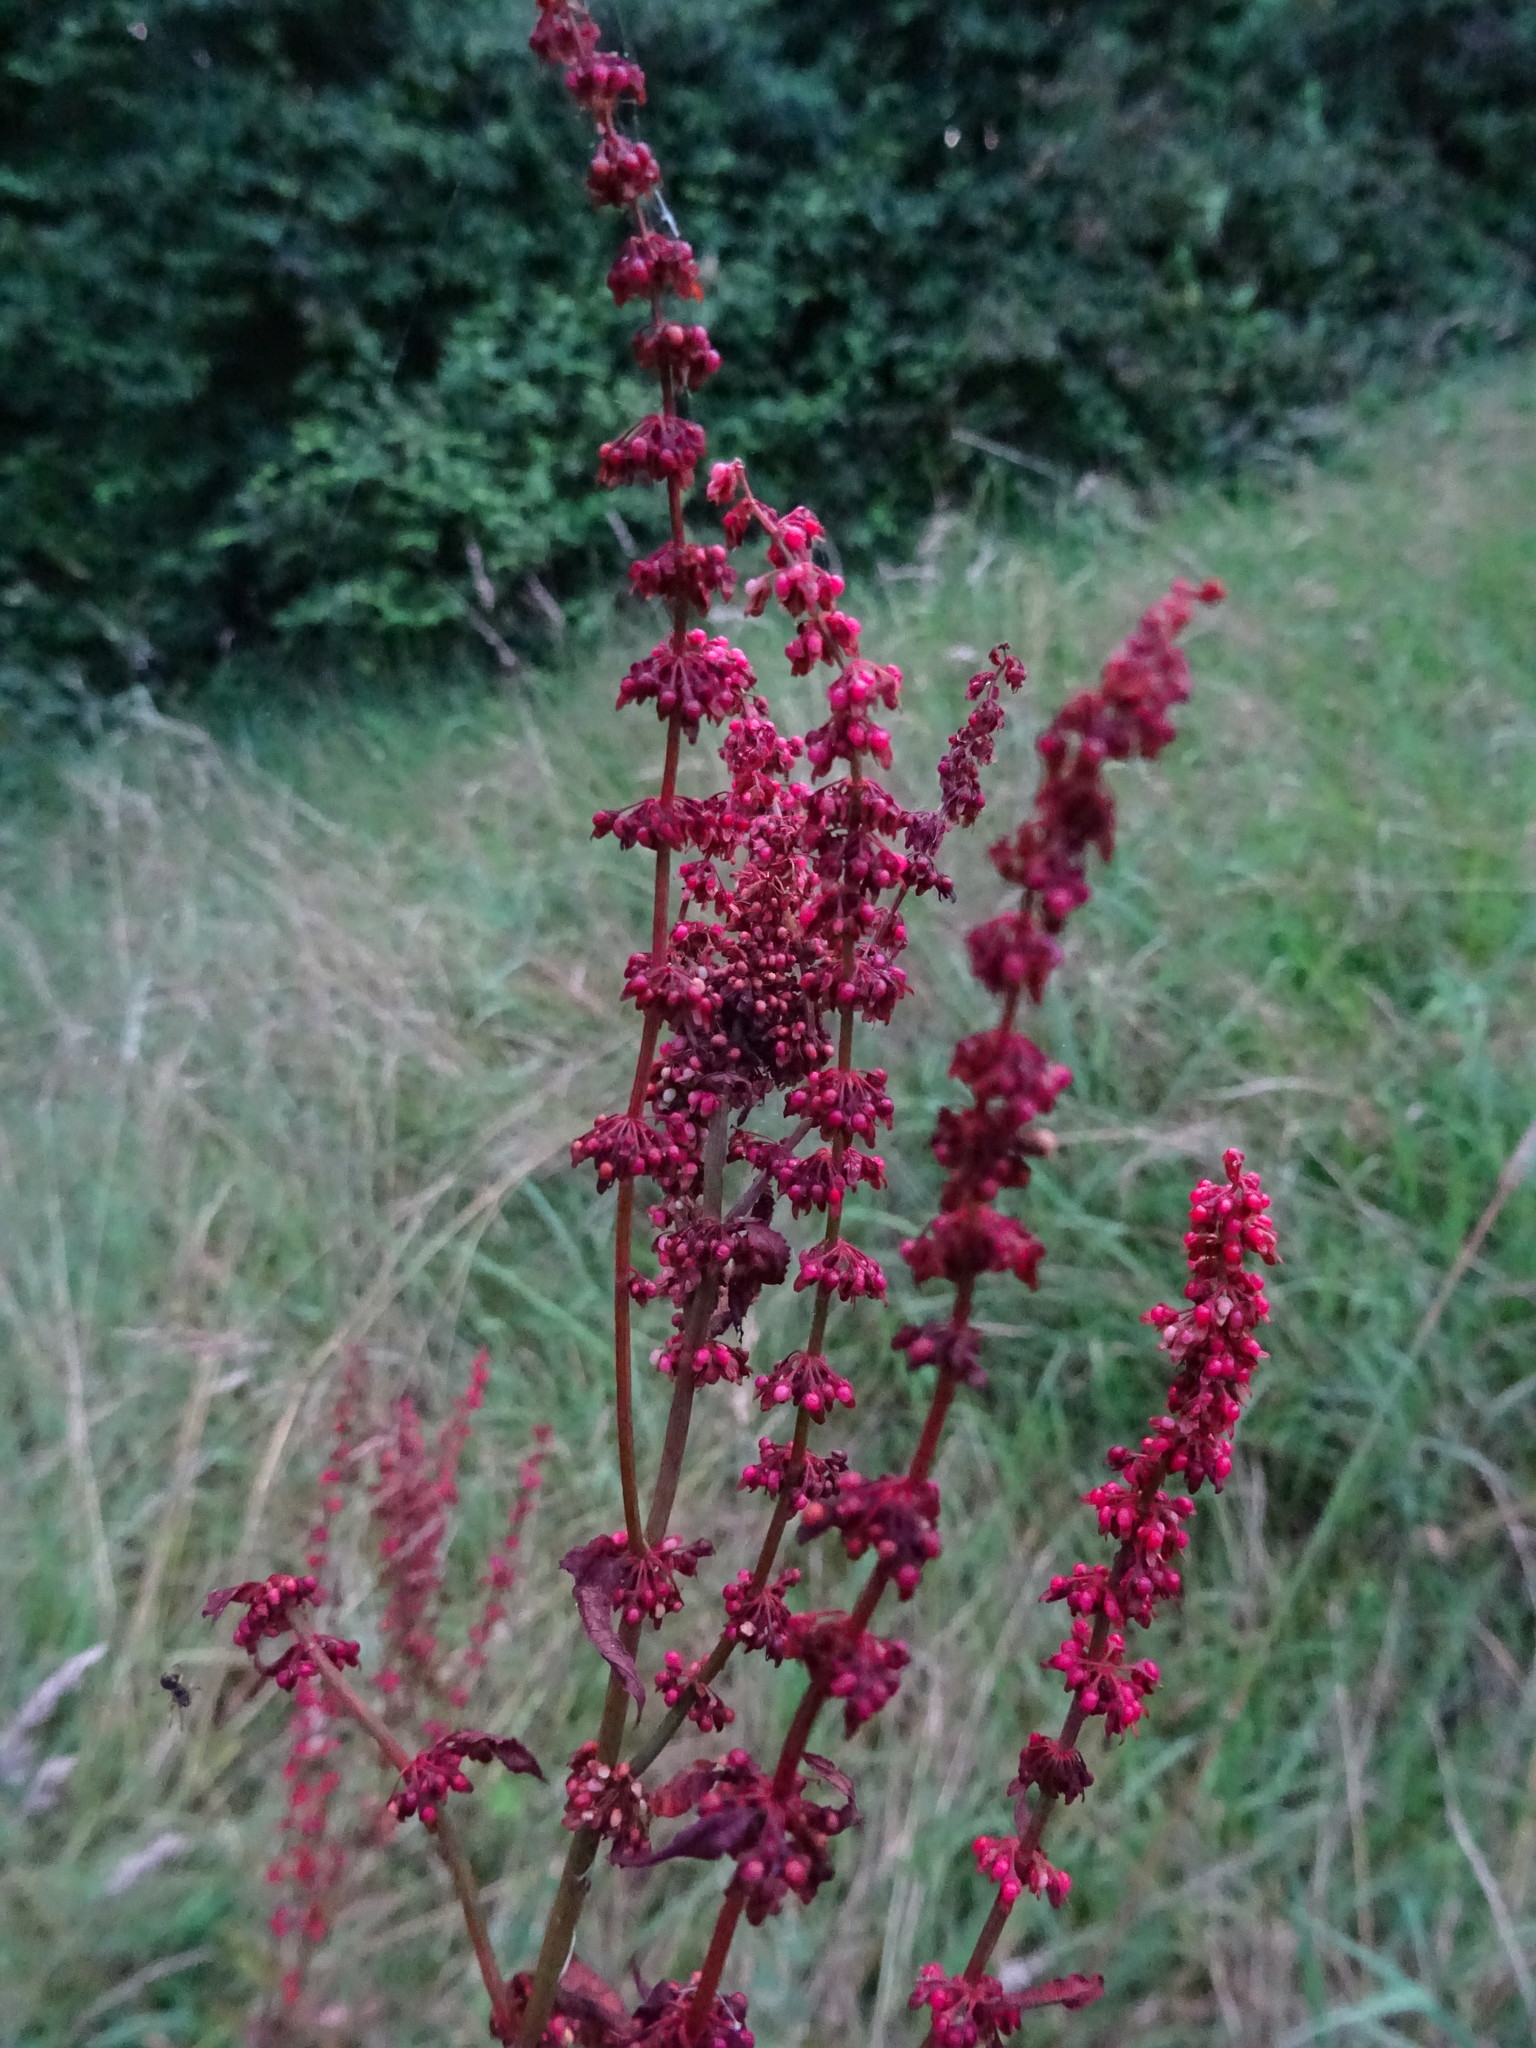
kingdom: Plantae
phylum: Tracheophyta
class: Magnoliopsida
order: Caryophyllales
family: Polygonaceae
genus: Rumex
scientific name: Rumex sanguineus
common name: Wood dock
